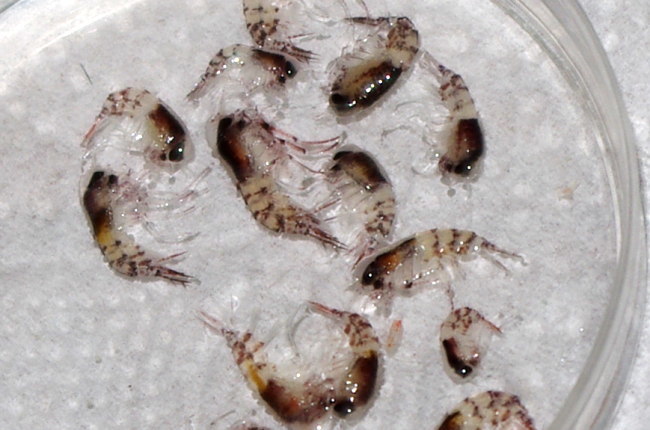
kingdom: Animalia
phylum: Arthropoda
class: Malacostraca
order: Amphipoda
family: Hyperiidae
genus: Themisto
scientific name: Themisto compressa
